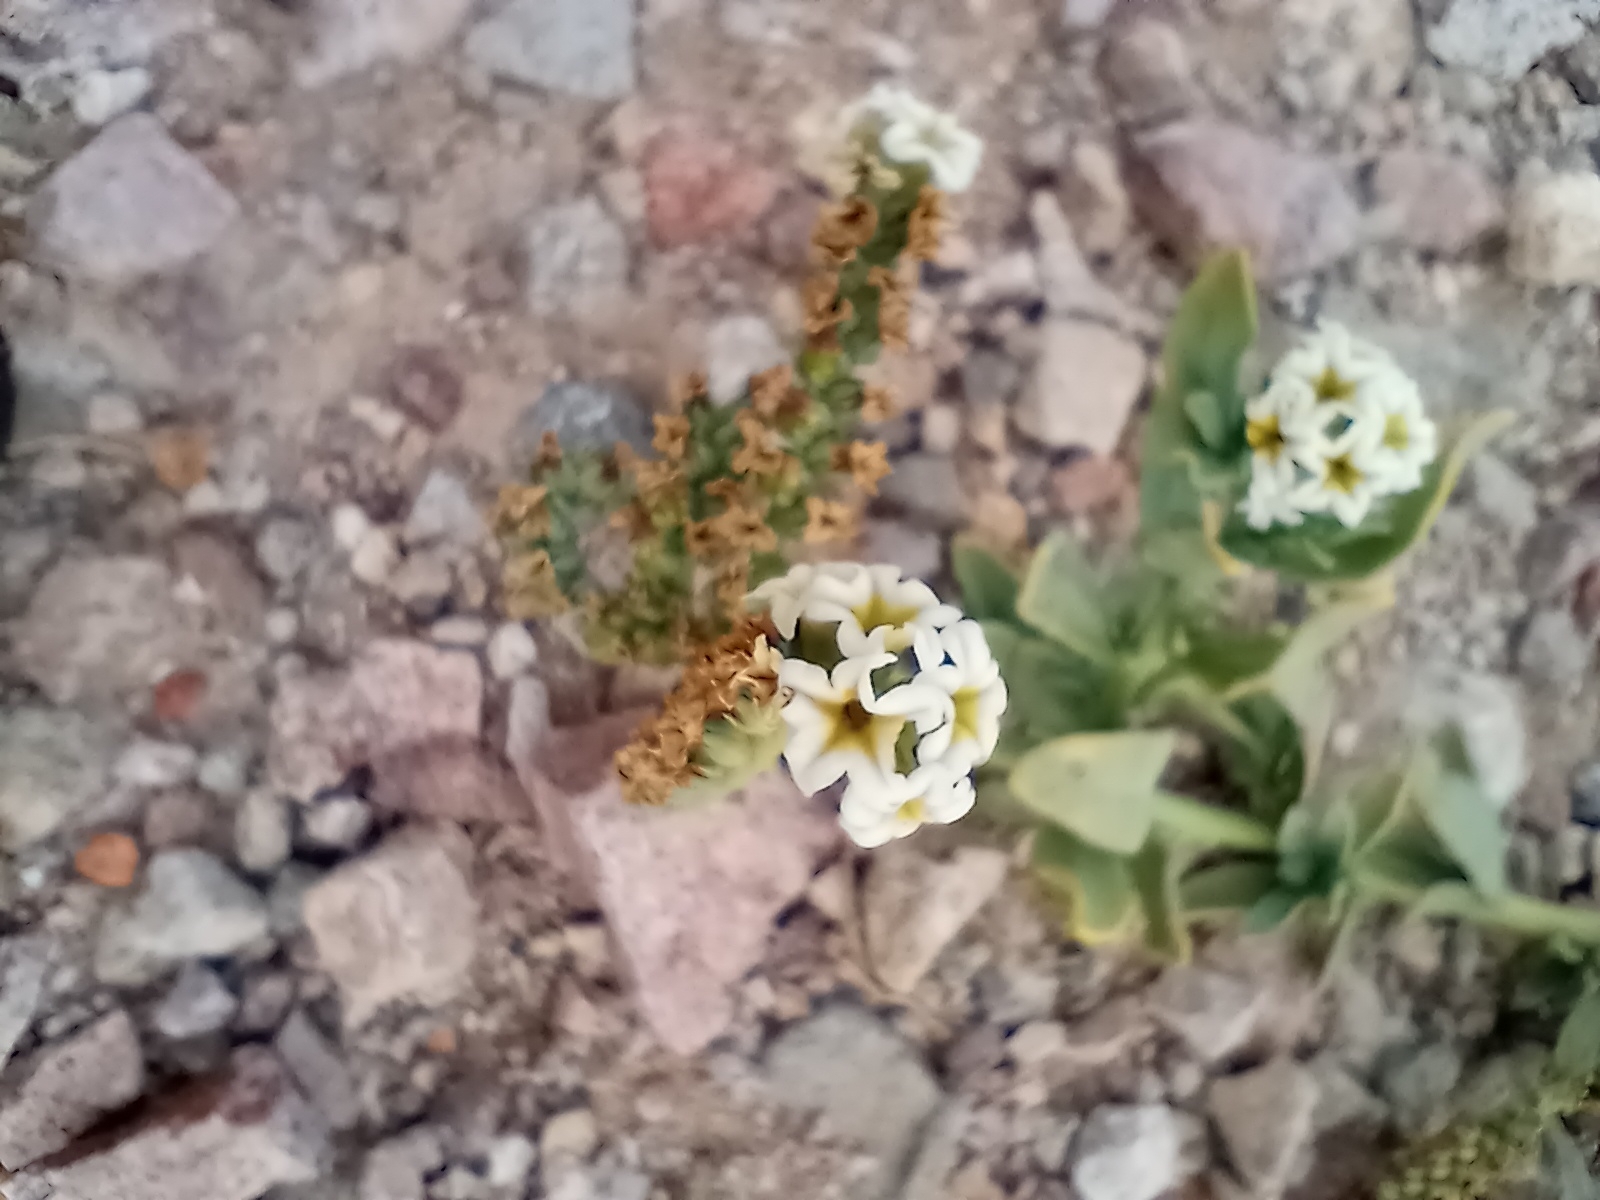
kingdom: Plantae
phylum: Tracheophyta
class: Magnoliopsida
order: Boraginales
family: Heliotropiaceae
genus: Heliotropium
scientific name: Heliotropium curassavicum
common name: Seaside heliotrope
